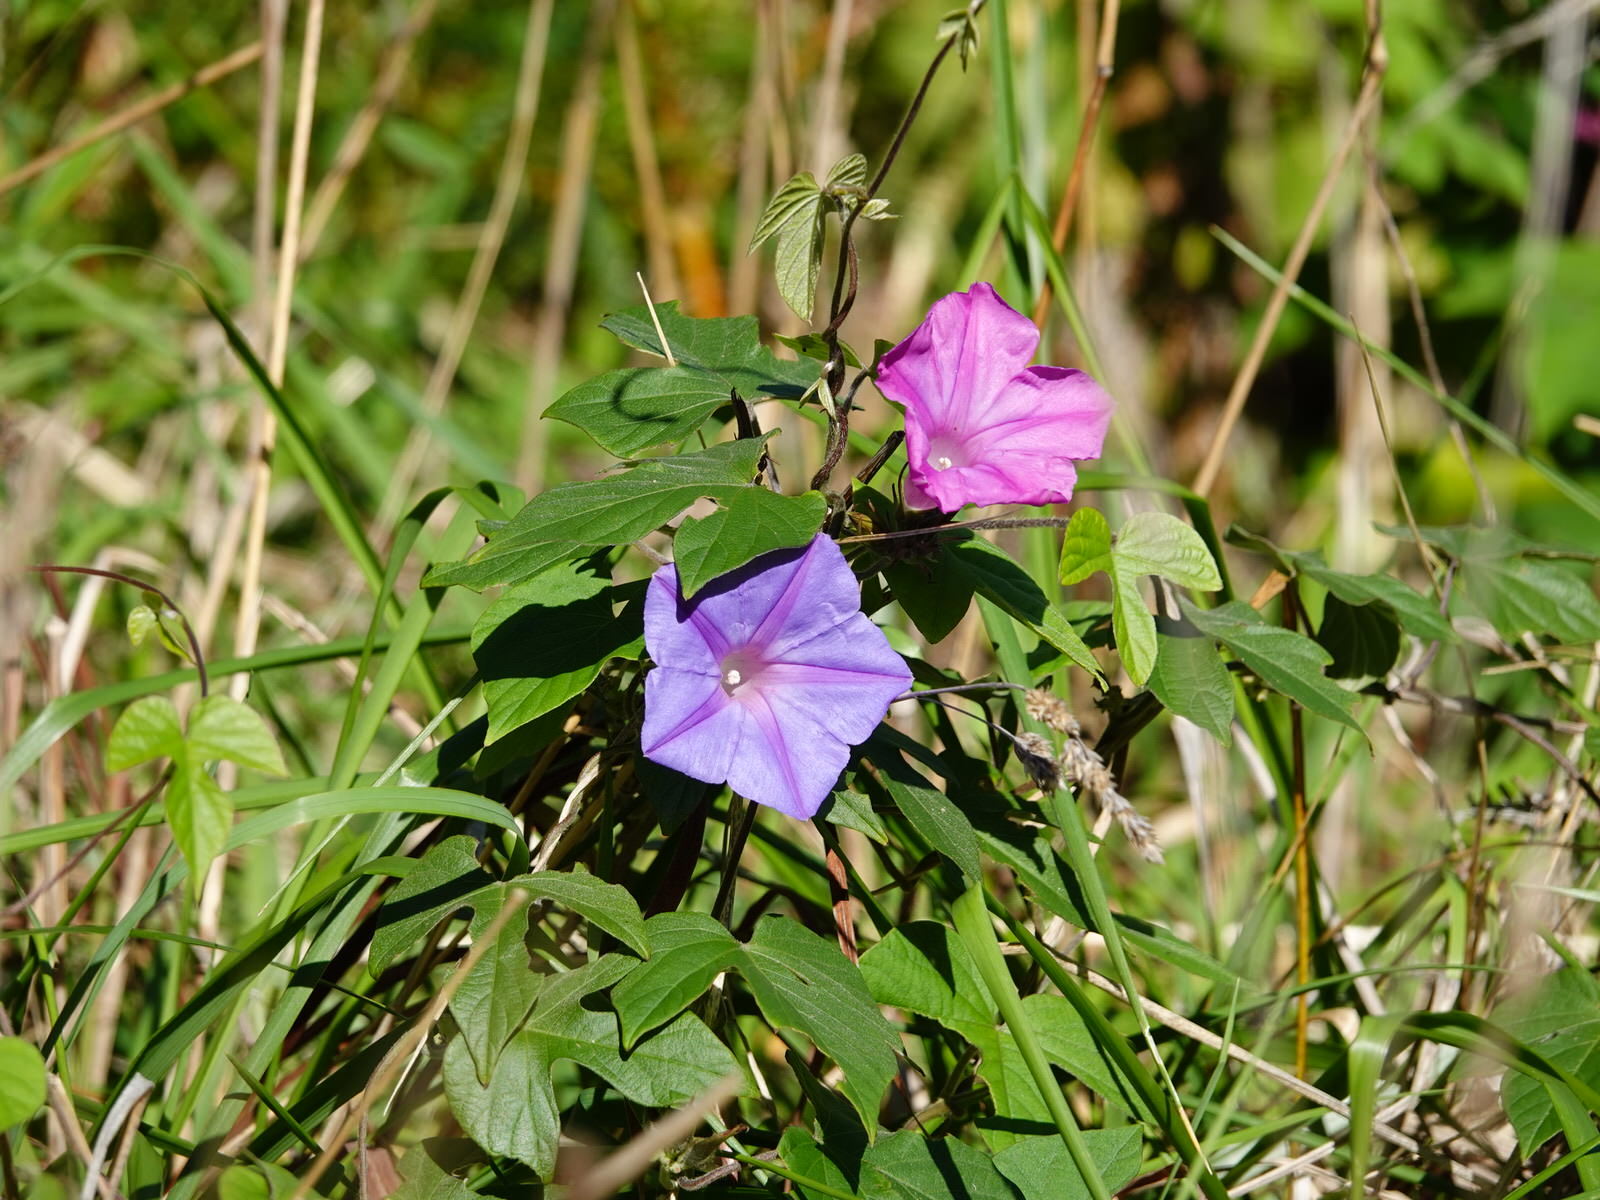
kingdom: Plantae
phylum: Tracheophyta
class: Magnoliopsida
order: Solanales
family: Convolvulaceae
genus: Ipomoea
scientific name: Ipomoea indica
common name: Blue dawnflower
